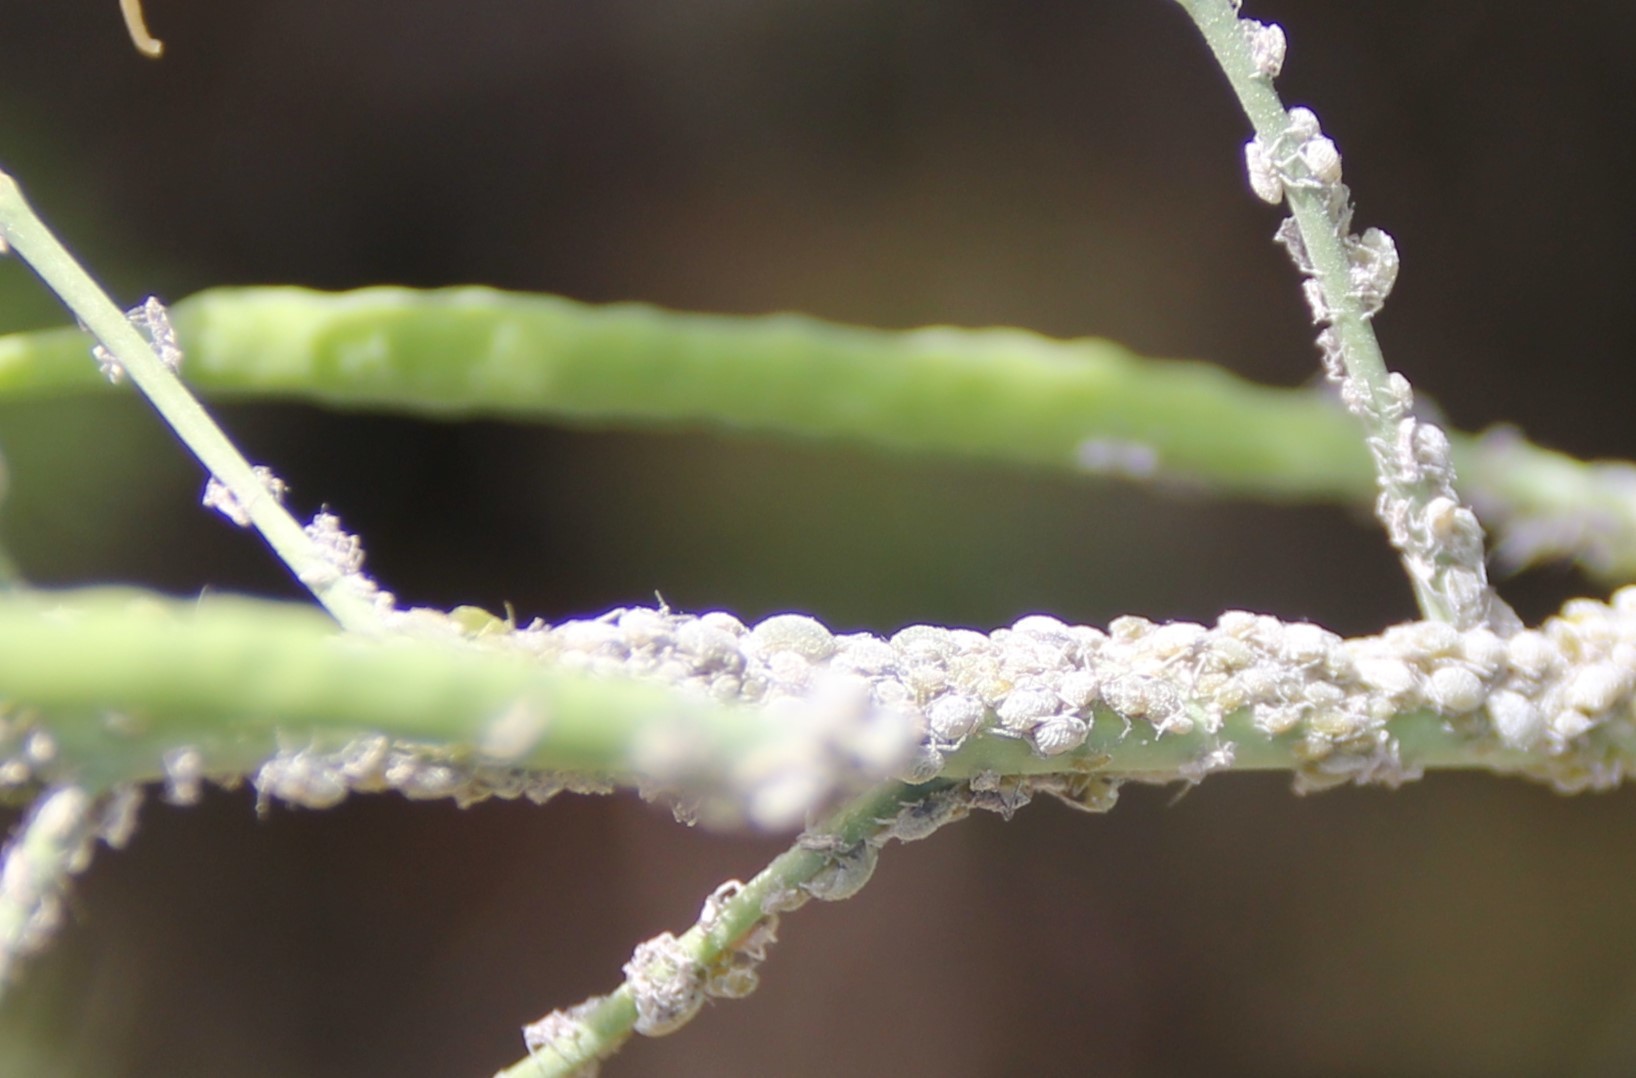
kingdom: Animalia
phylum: Arthropoda
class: Insecta
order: Hemiptera
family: Aphididae
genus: Brevicoryne
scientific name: Brevicoryne brassicae
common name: Cabbage aphid
